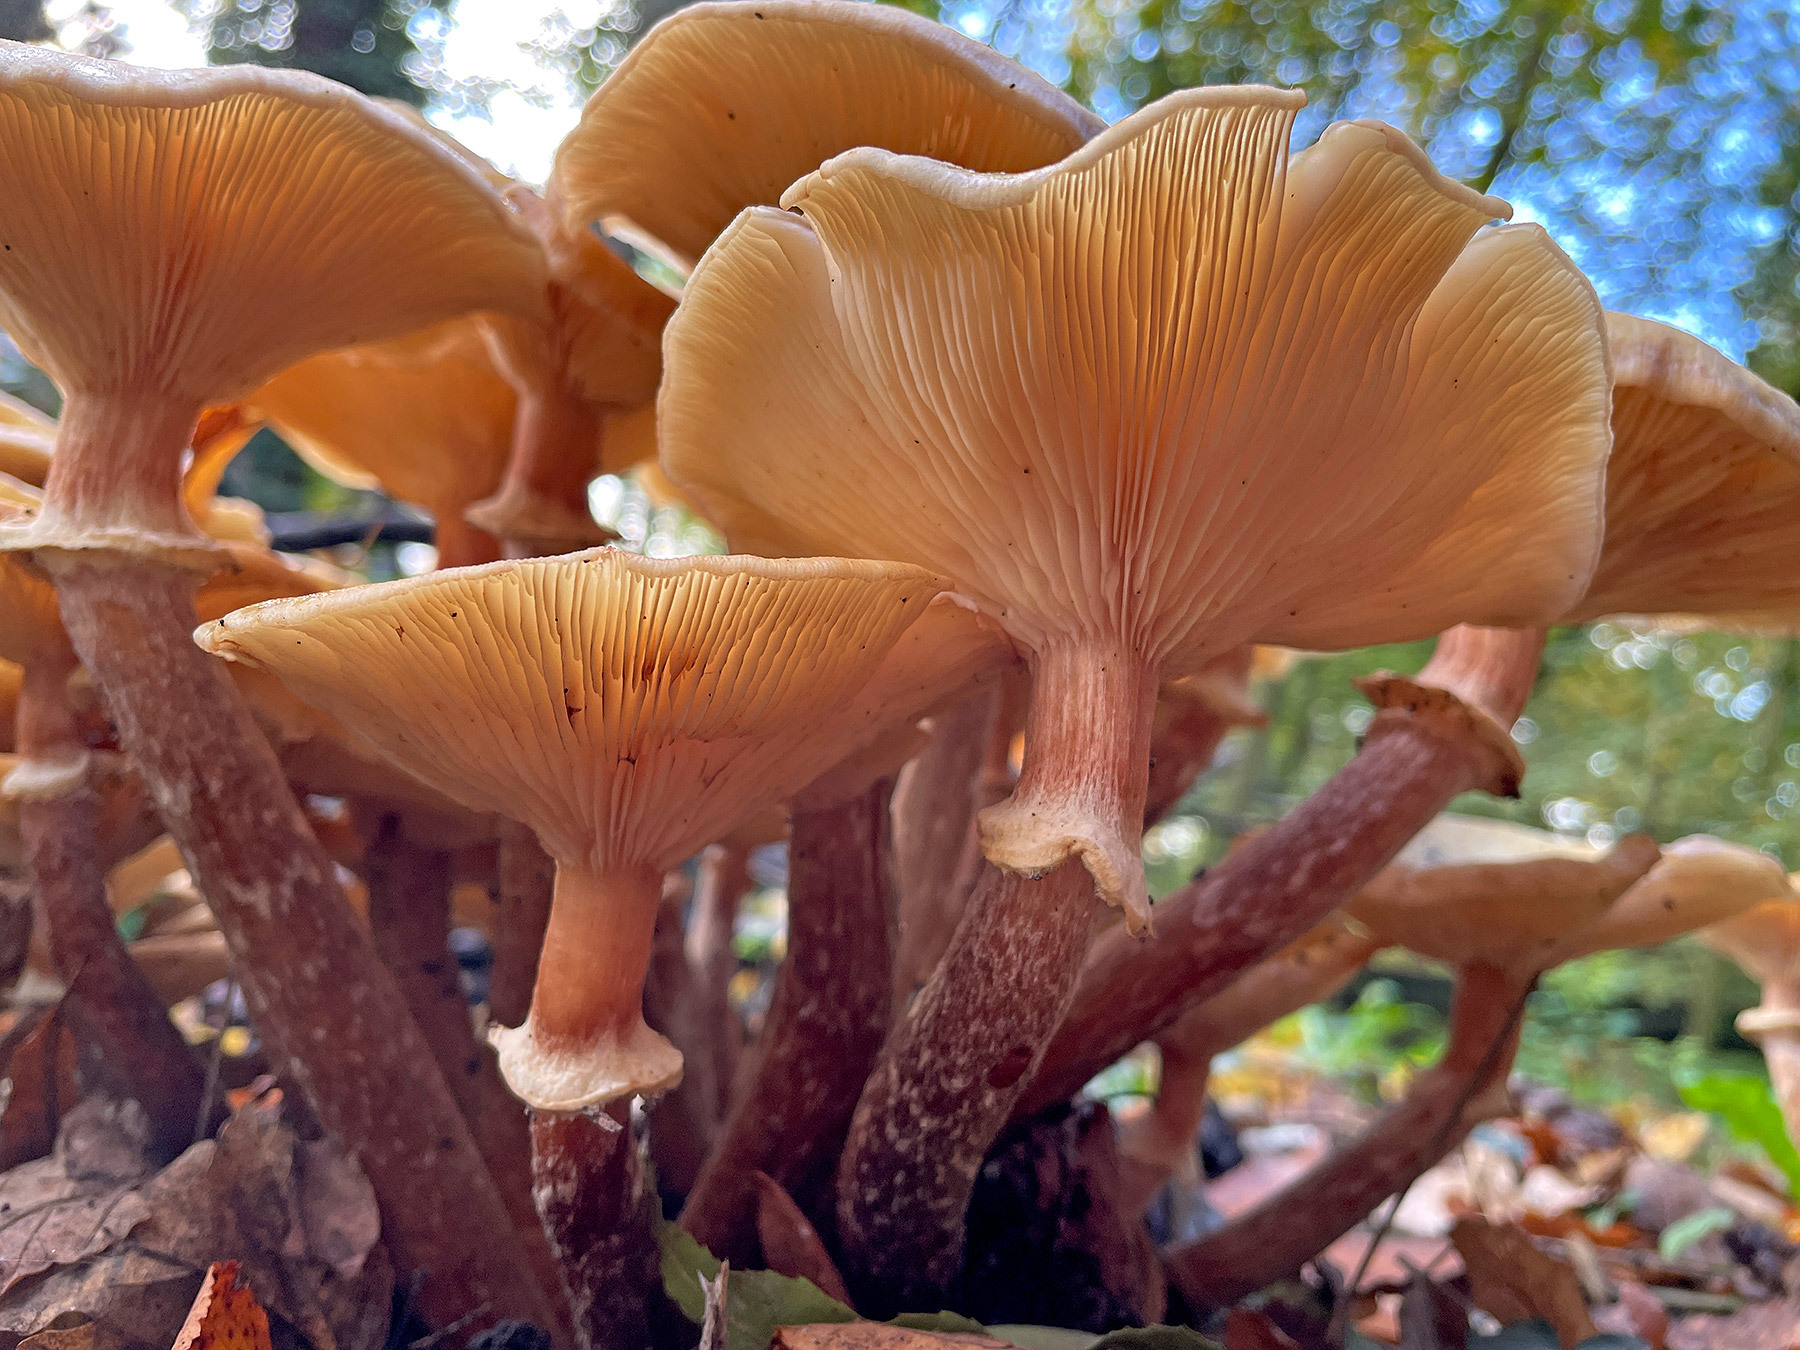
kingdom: Fungi
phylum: Basidiomycota
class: Agaricomycetes
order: Agaricales
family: Physalacriaceae
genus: Armillaria
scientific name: Armillaria mellea
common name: Honey fungus
